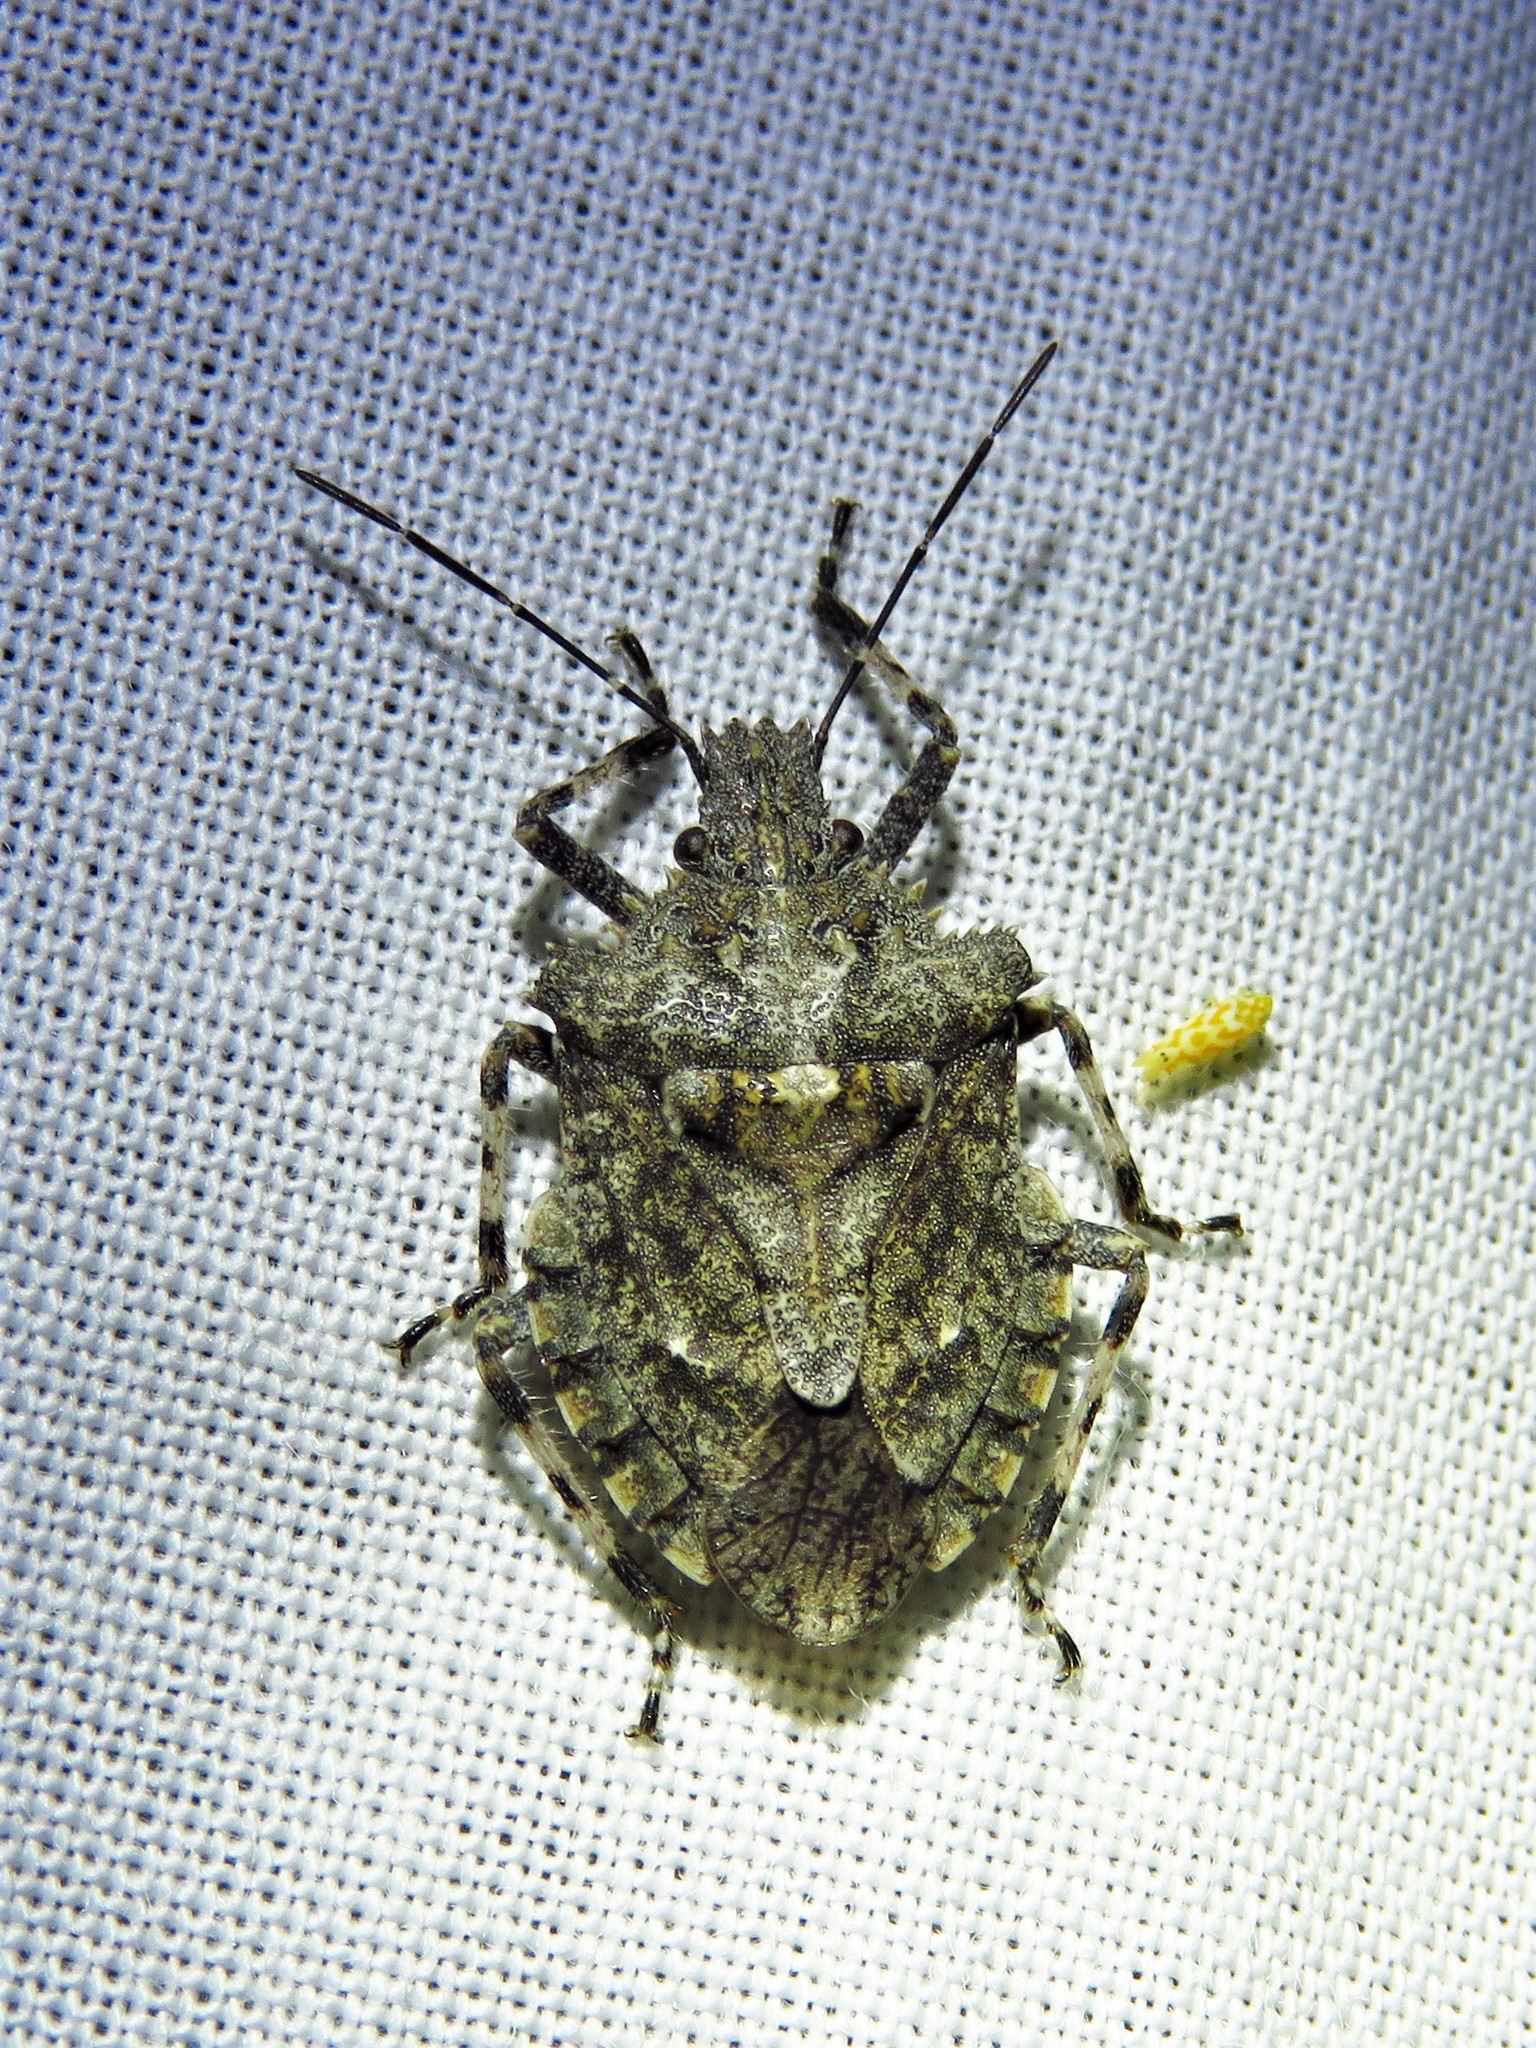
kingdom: Animalia
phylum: Arthropoda
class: Insecta
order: Hemiptera
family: Pentatomidae
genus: Brochymena
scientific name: Brochymena arborea
